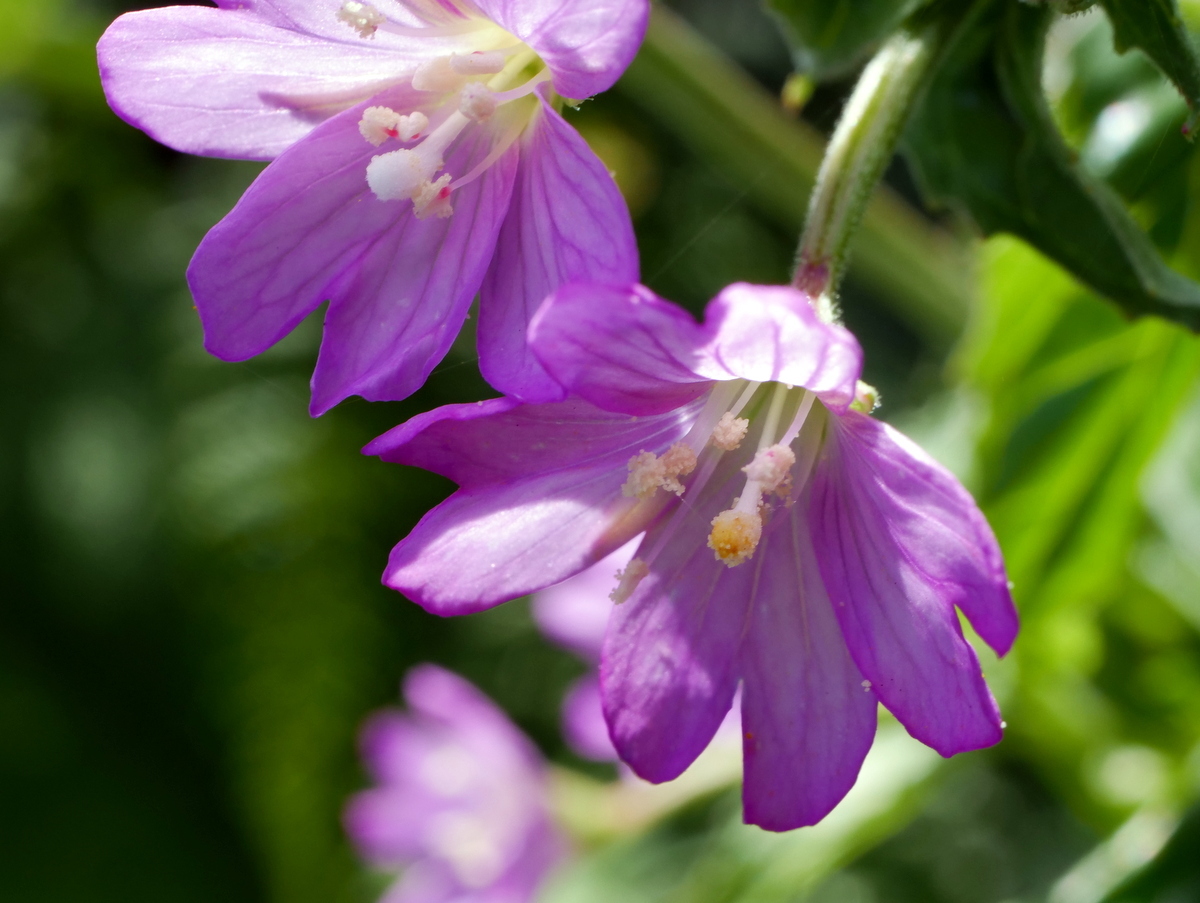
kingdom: Plantae
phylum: Tracheophyta
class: Magnoliopsida
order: Myrtales
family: Onagraceae
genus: Epilobium
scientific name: Epilobium alpestre
